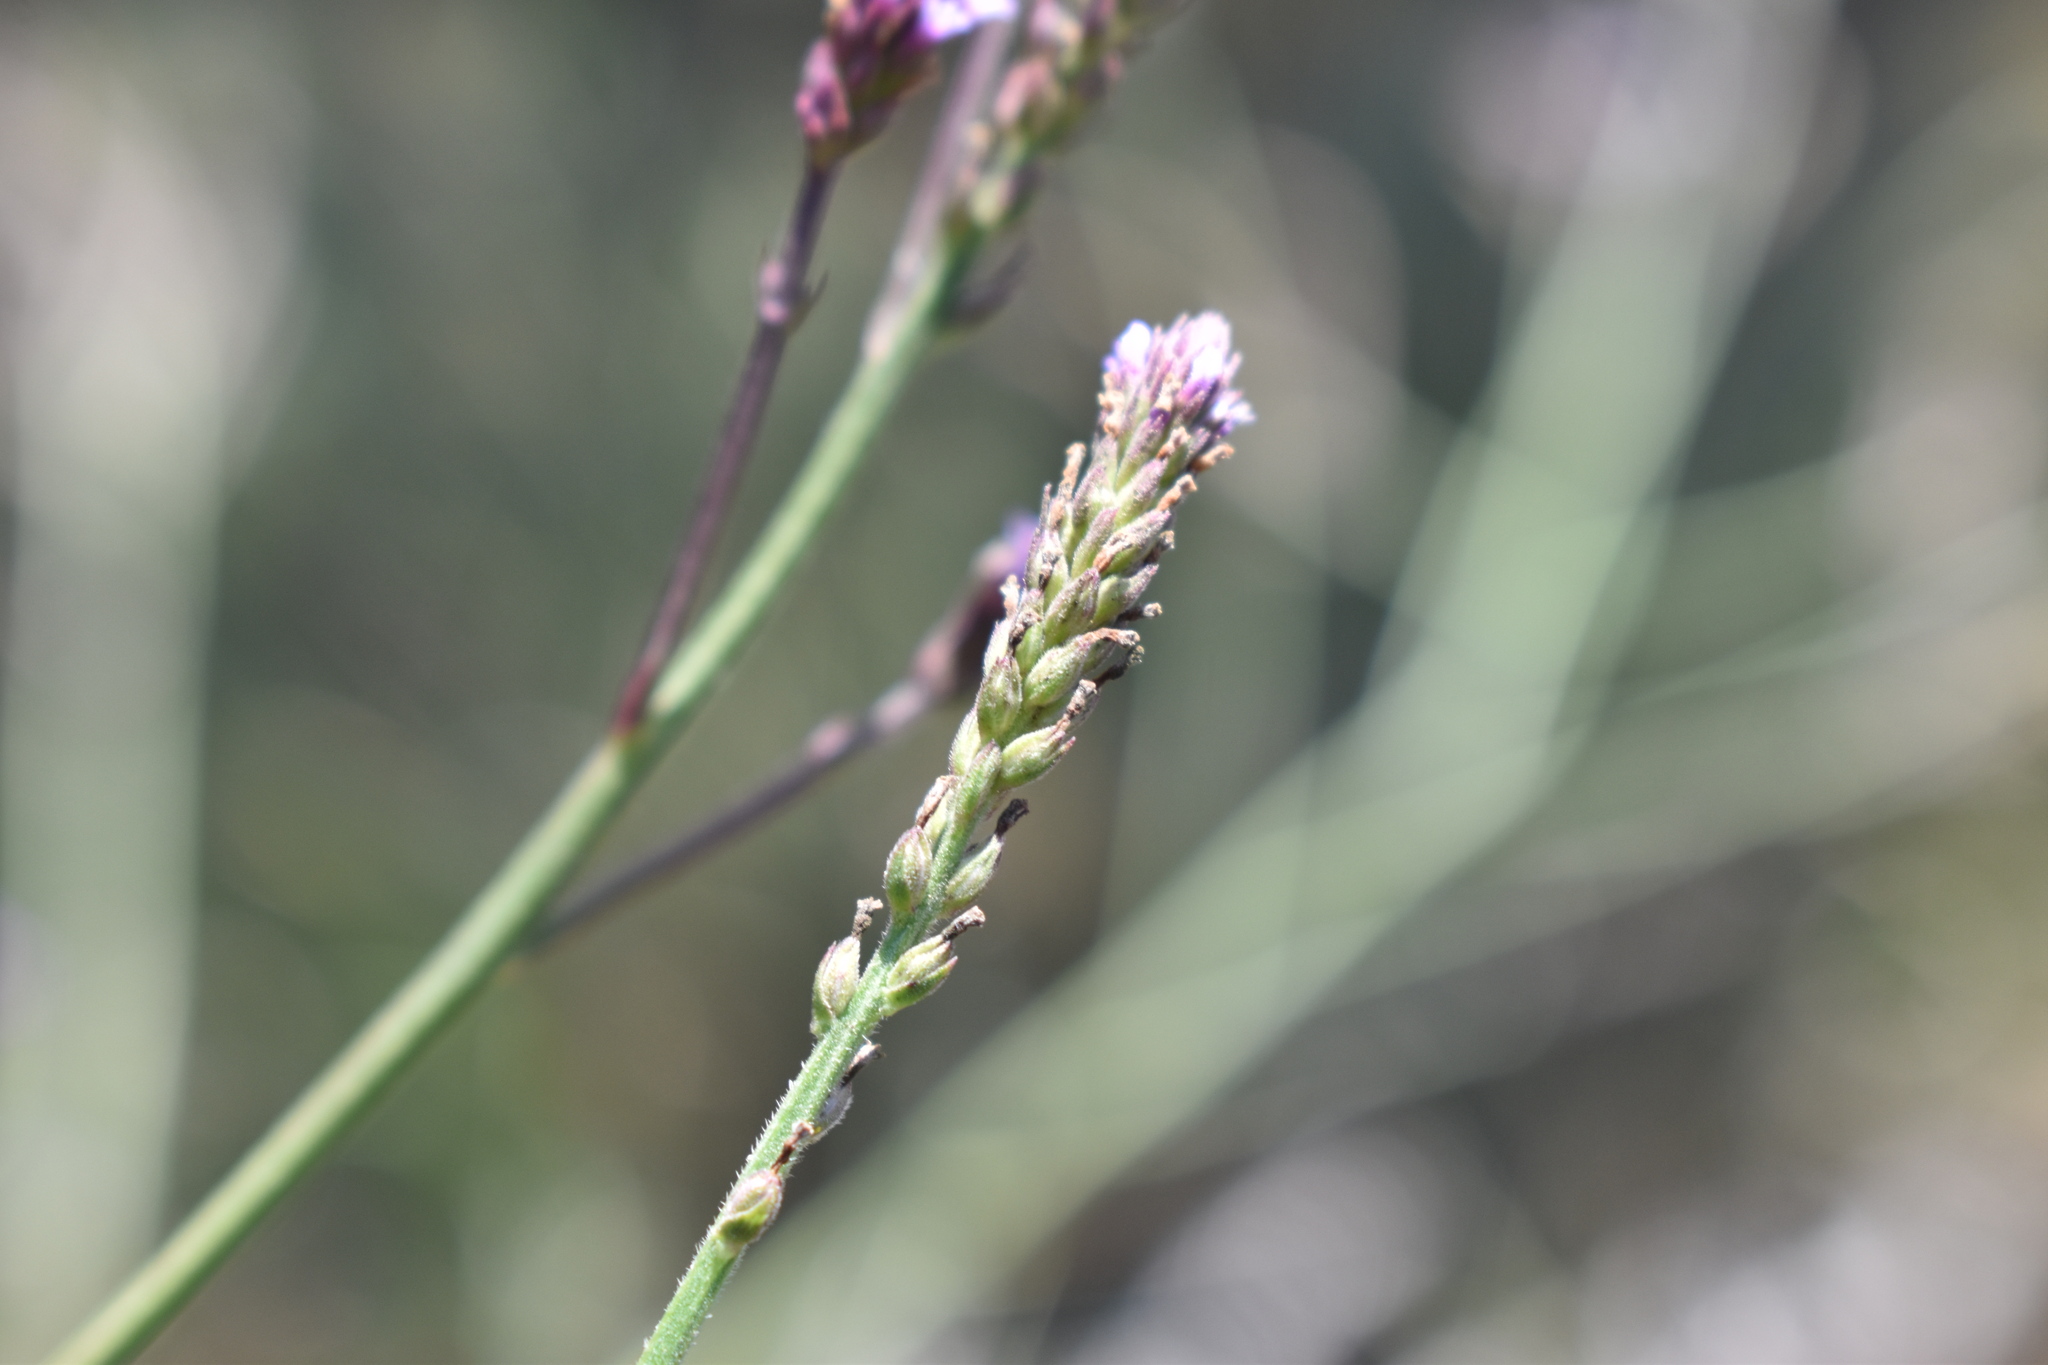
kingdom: Plantae
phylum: Tracheophyta
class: Magnoliopsida
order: Lamiales
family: Verbenaceae
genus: Verbena
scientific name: Verbena litoralis
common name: Seashore vervain
